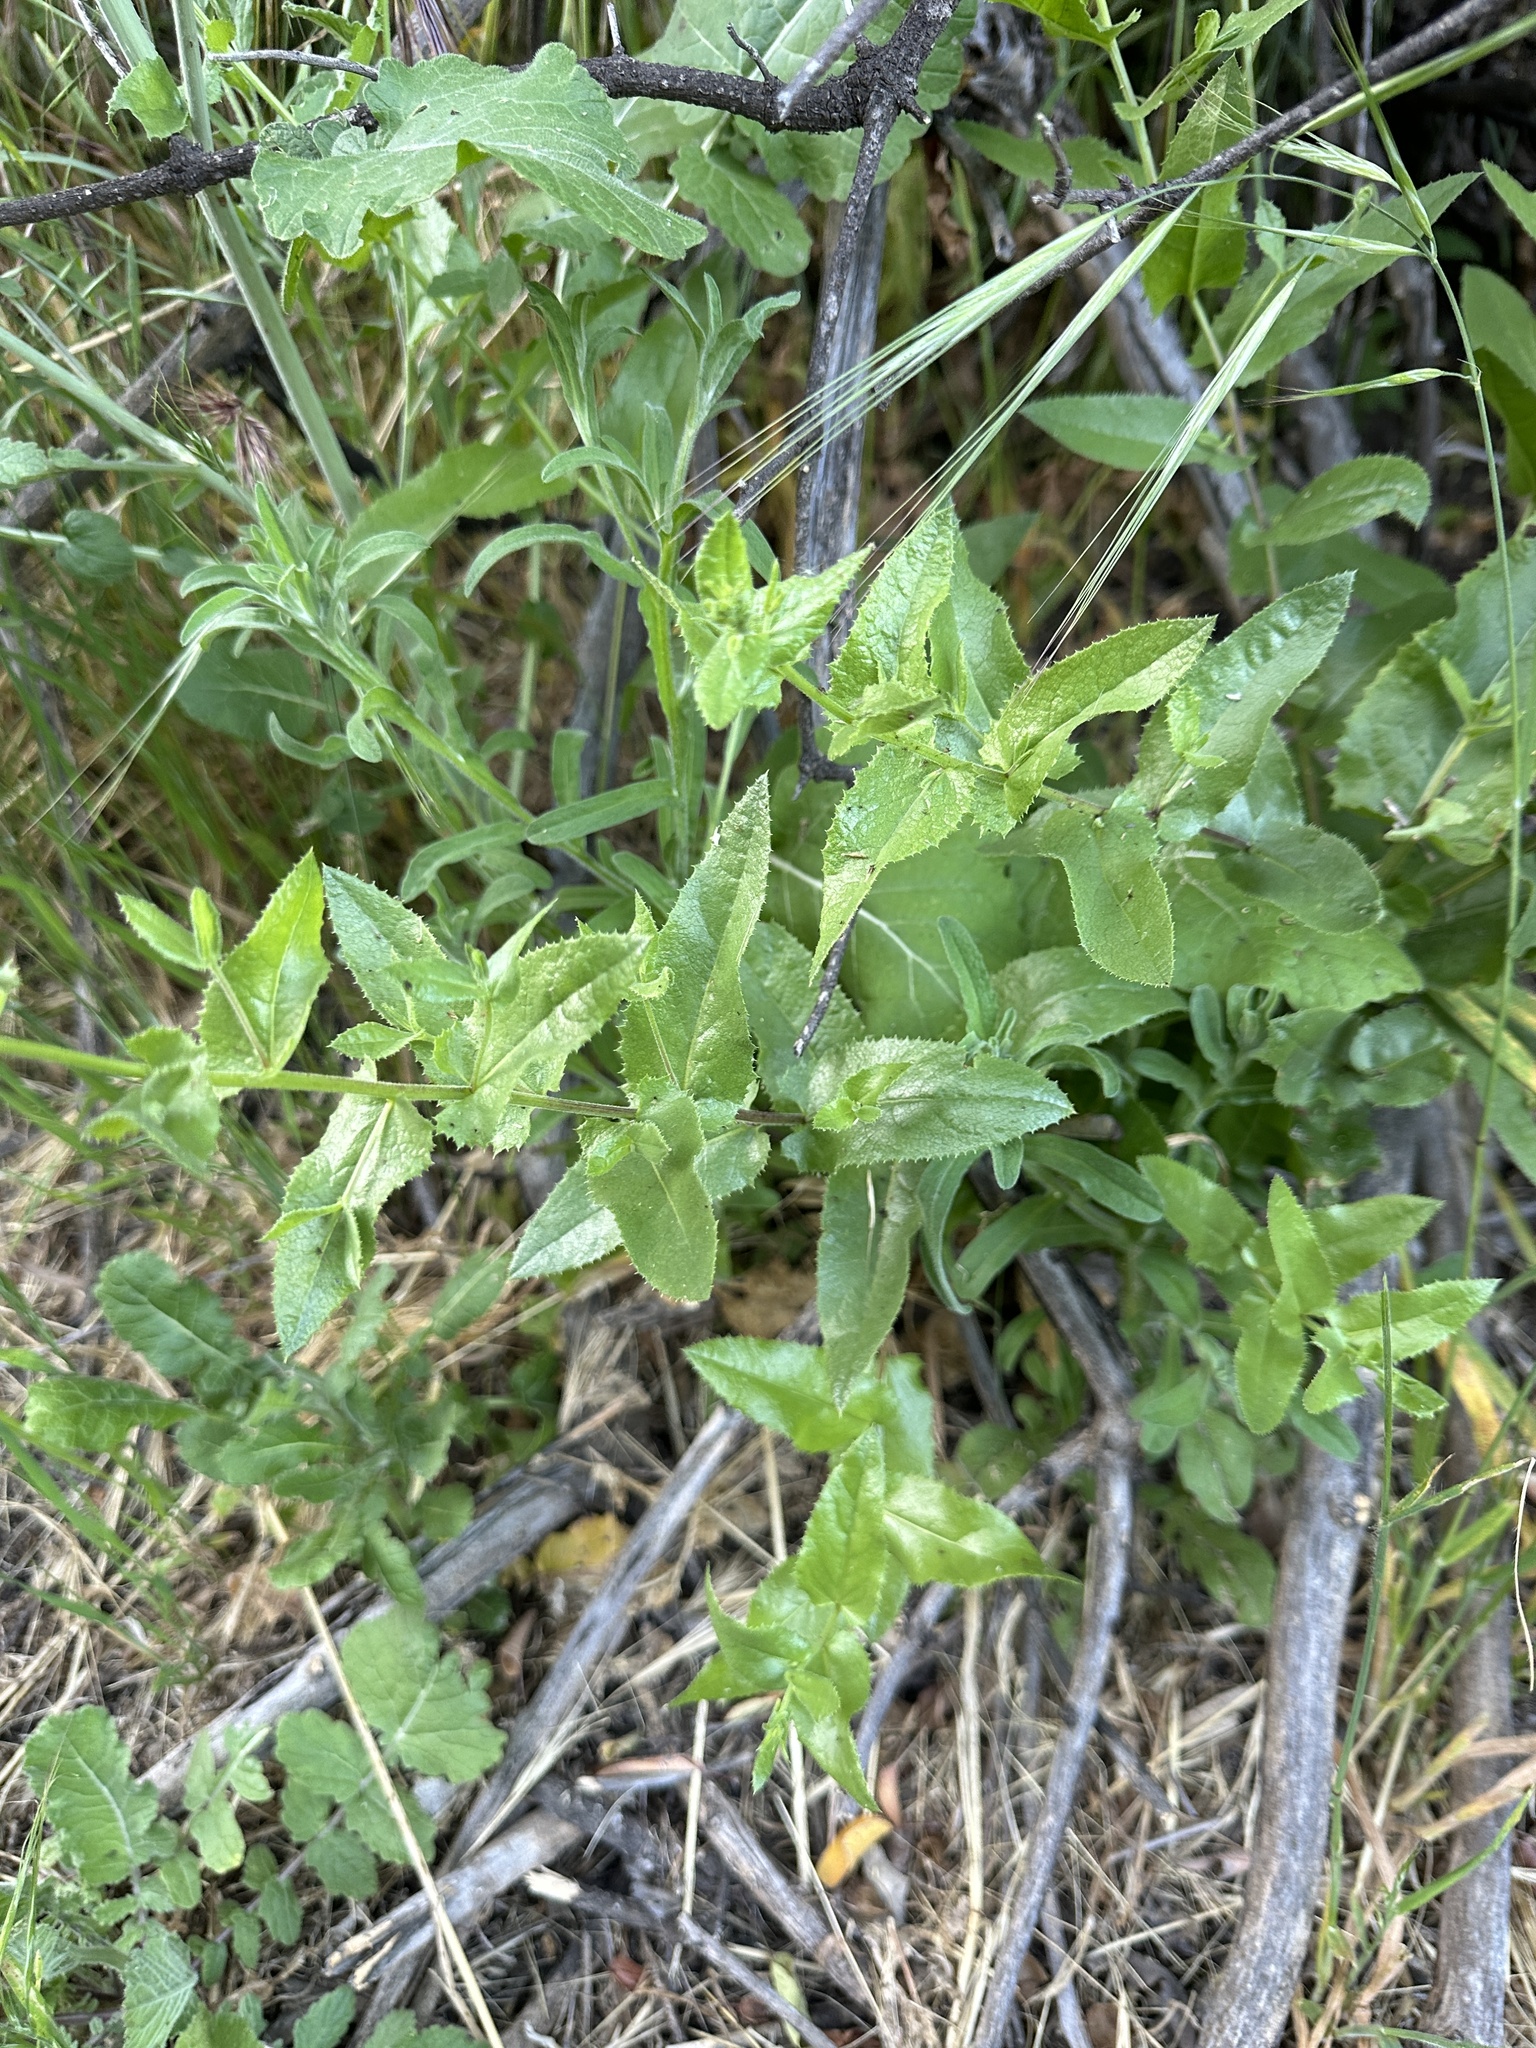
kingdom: Plantae
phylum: Tracheophyta
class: Magnoliopsida
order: Asterales
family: Asteraceae
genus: Acourtia
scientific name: Acourtia microcephala
